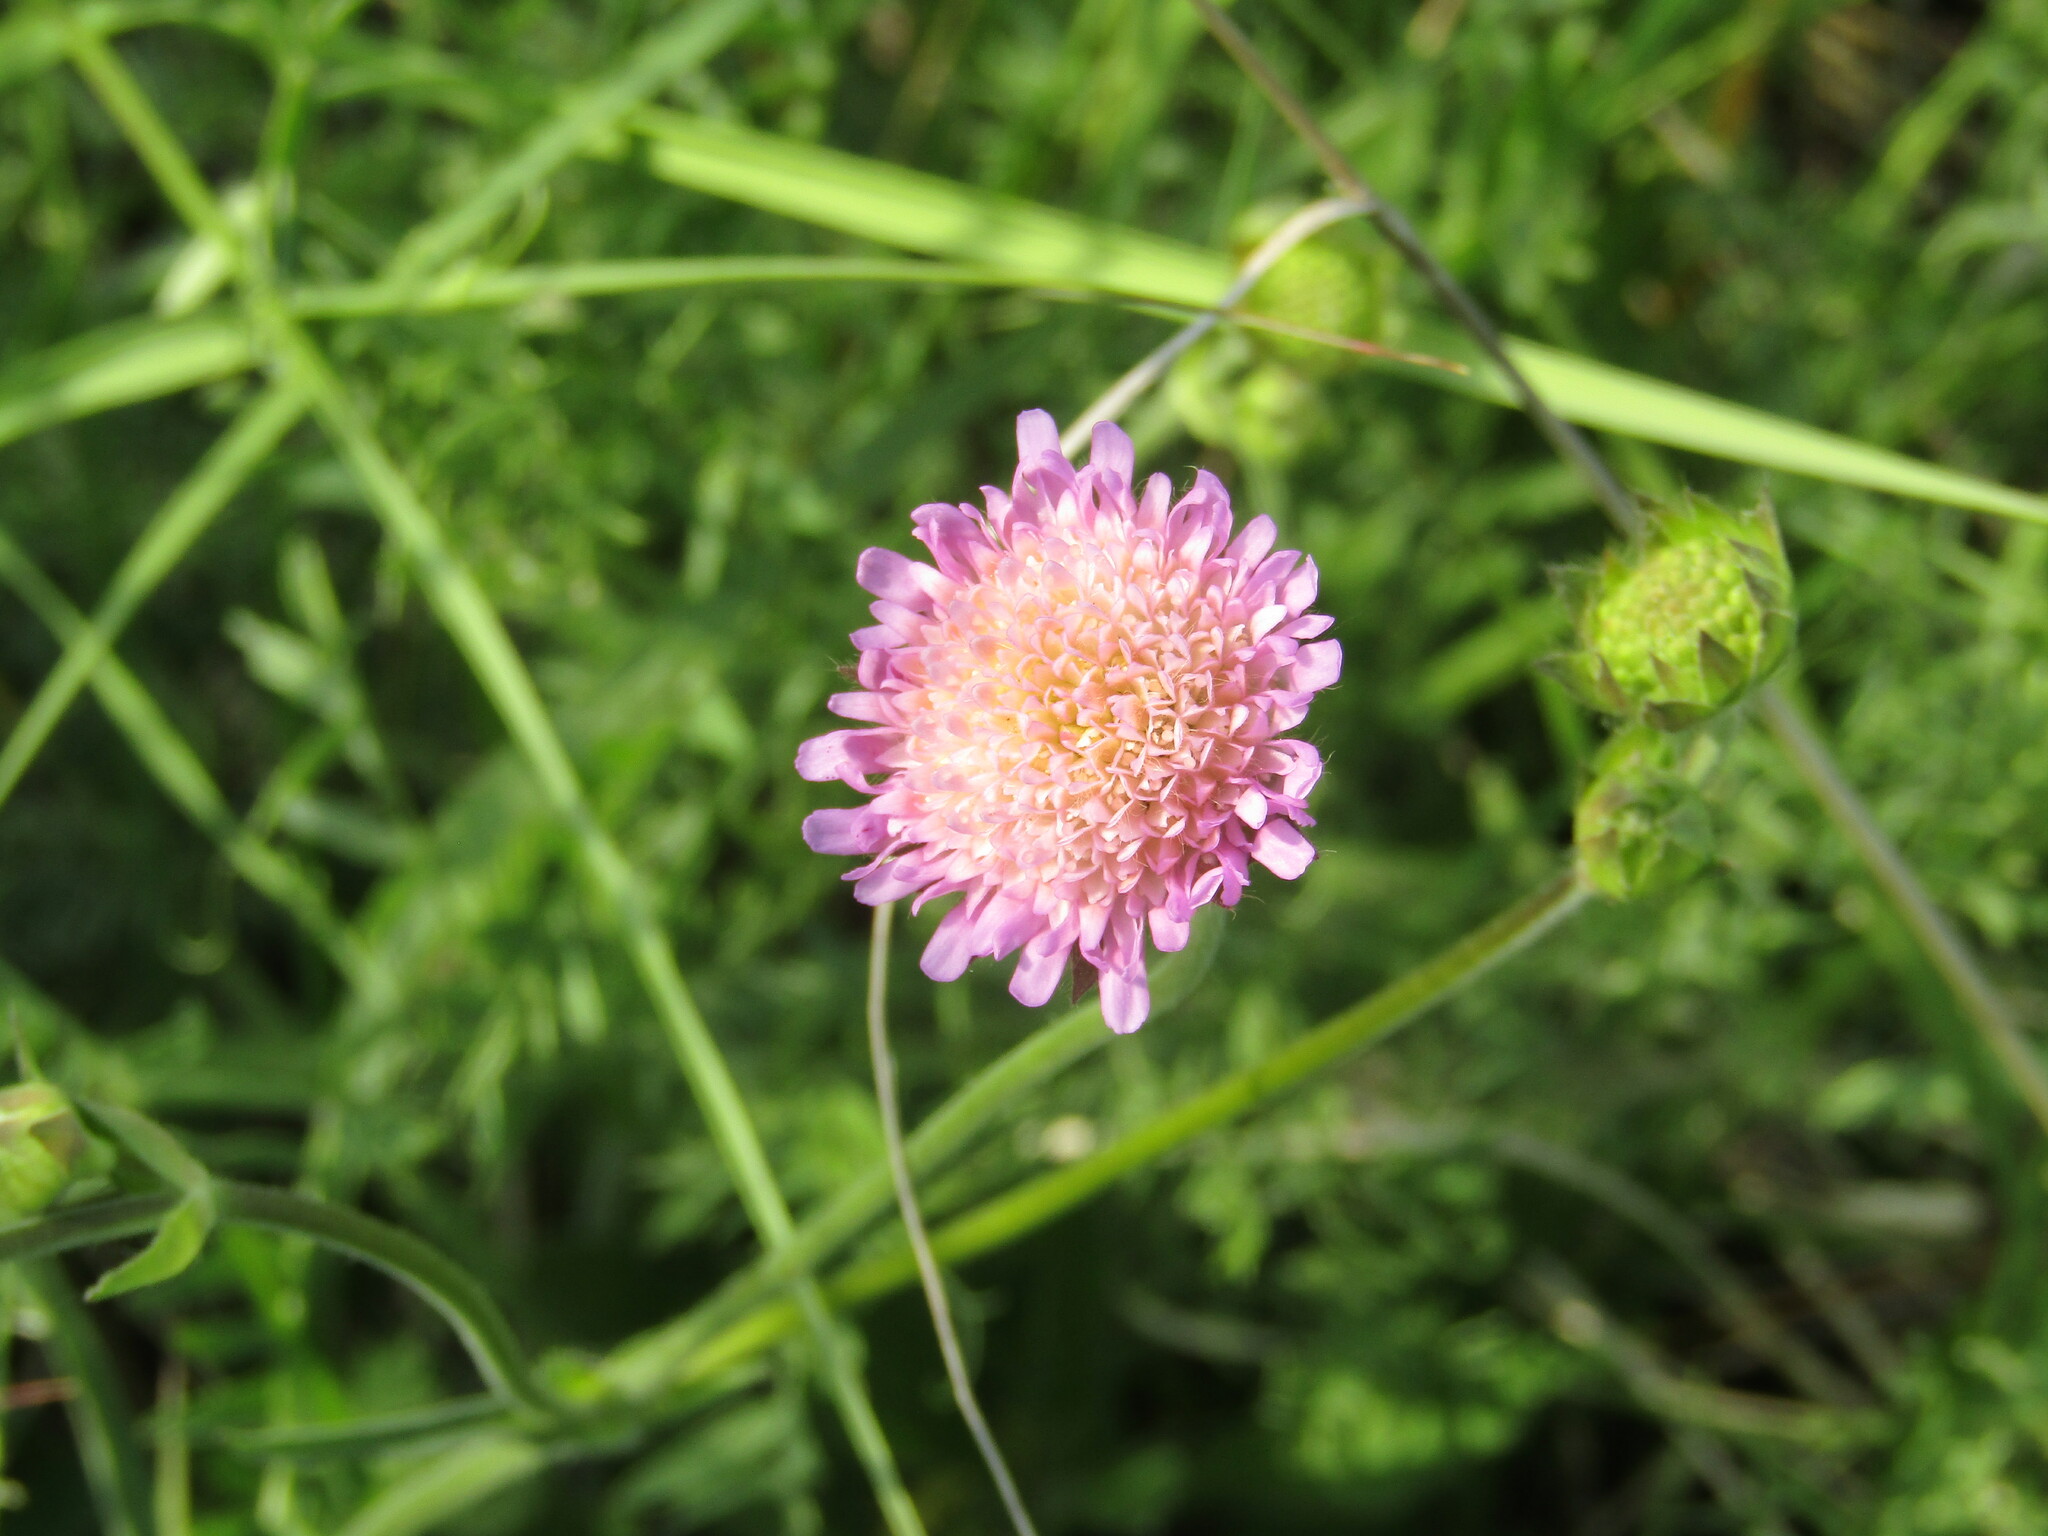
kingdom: Plantae
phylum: Tracheophyta
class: Magnoliopsida
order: Dipsacales
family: Caprifoliaceae
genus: Knautia
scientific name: Knautia arvensis
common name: Field scabiosa
